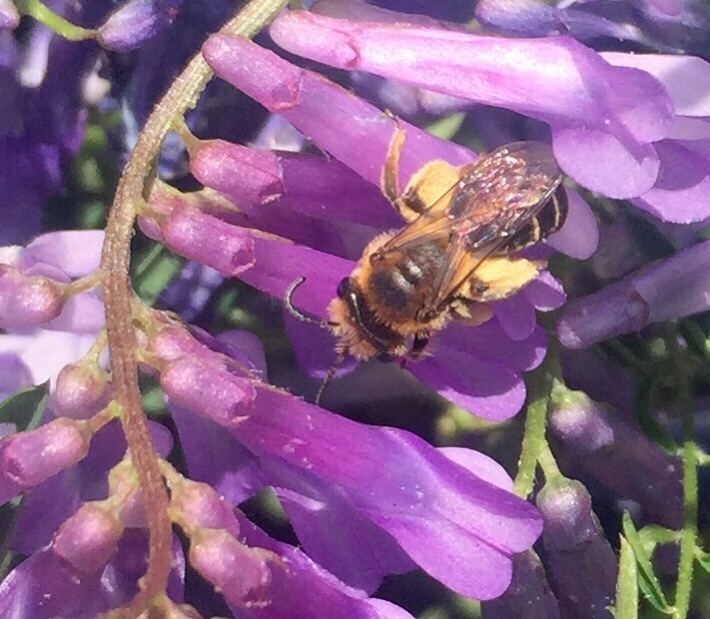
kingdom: Animalia
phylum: Arthropoda
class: Insecta
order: Hymenoptera
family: Andrenidae
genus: Andrena
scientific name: Andrena wilkella
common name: Wilke's mining bee
